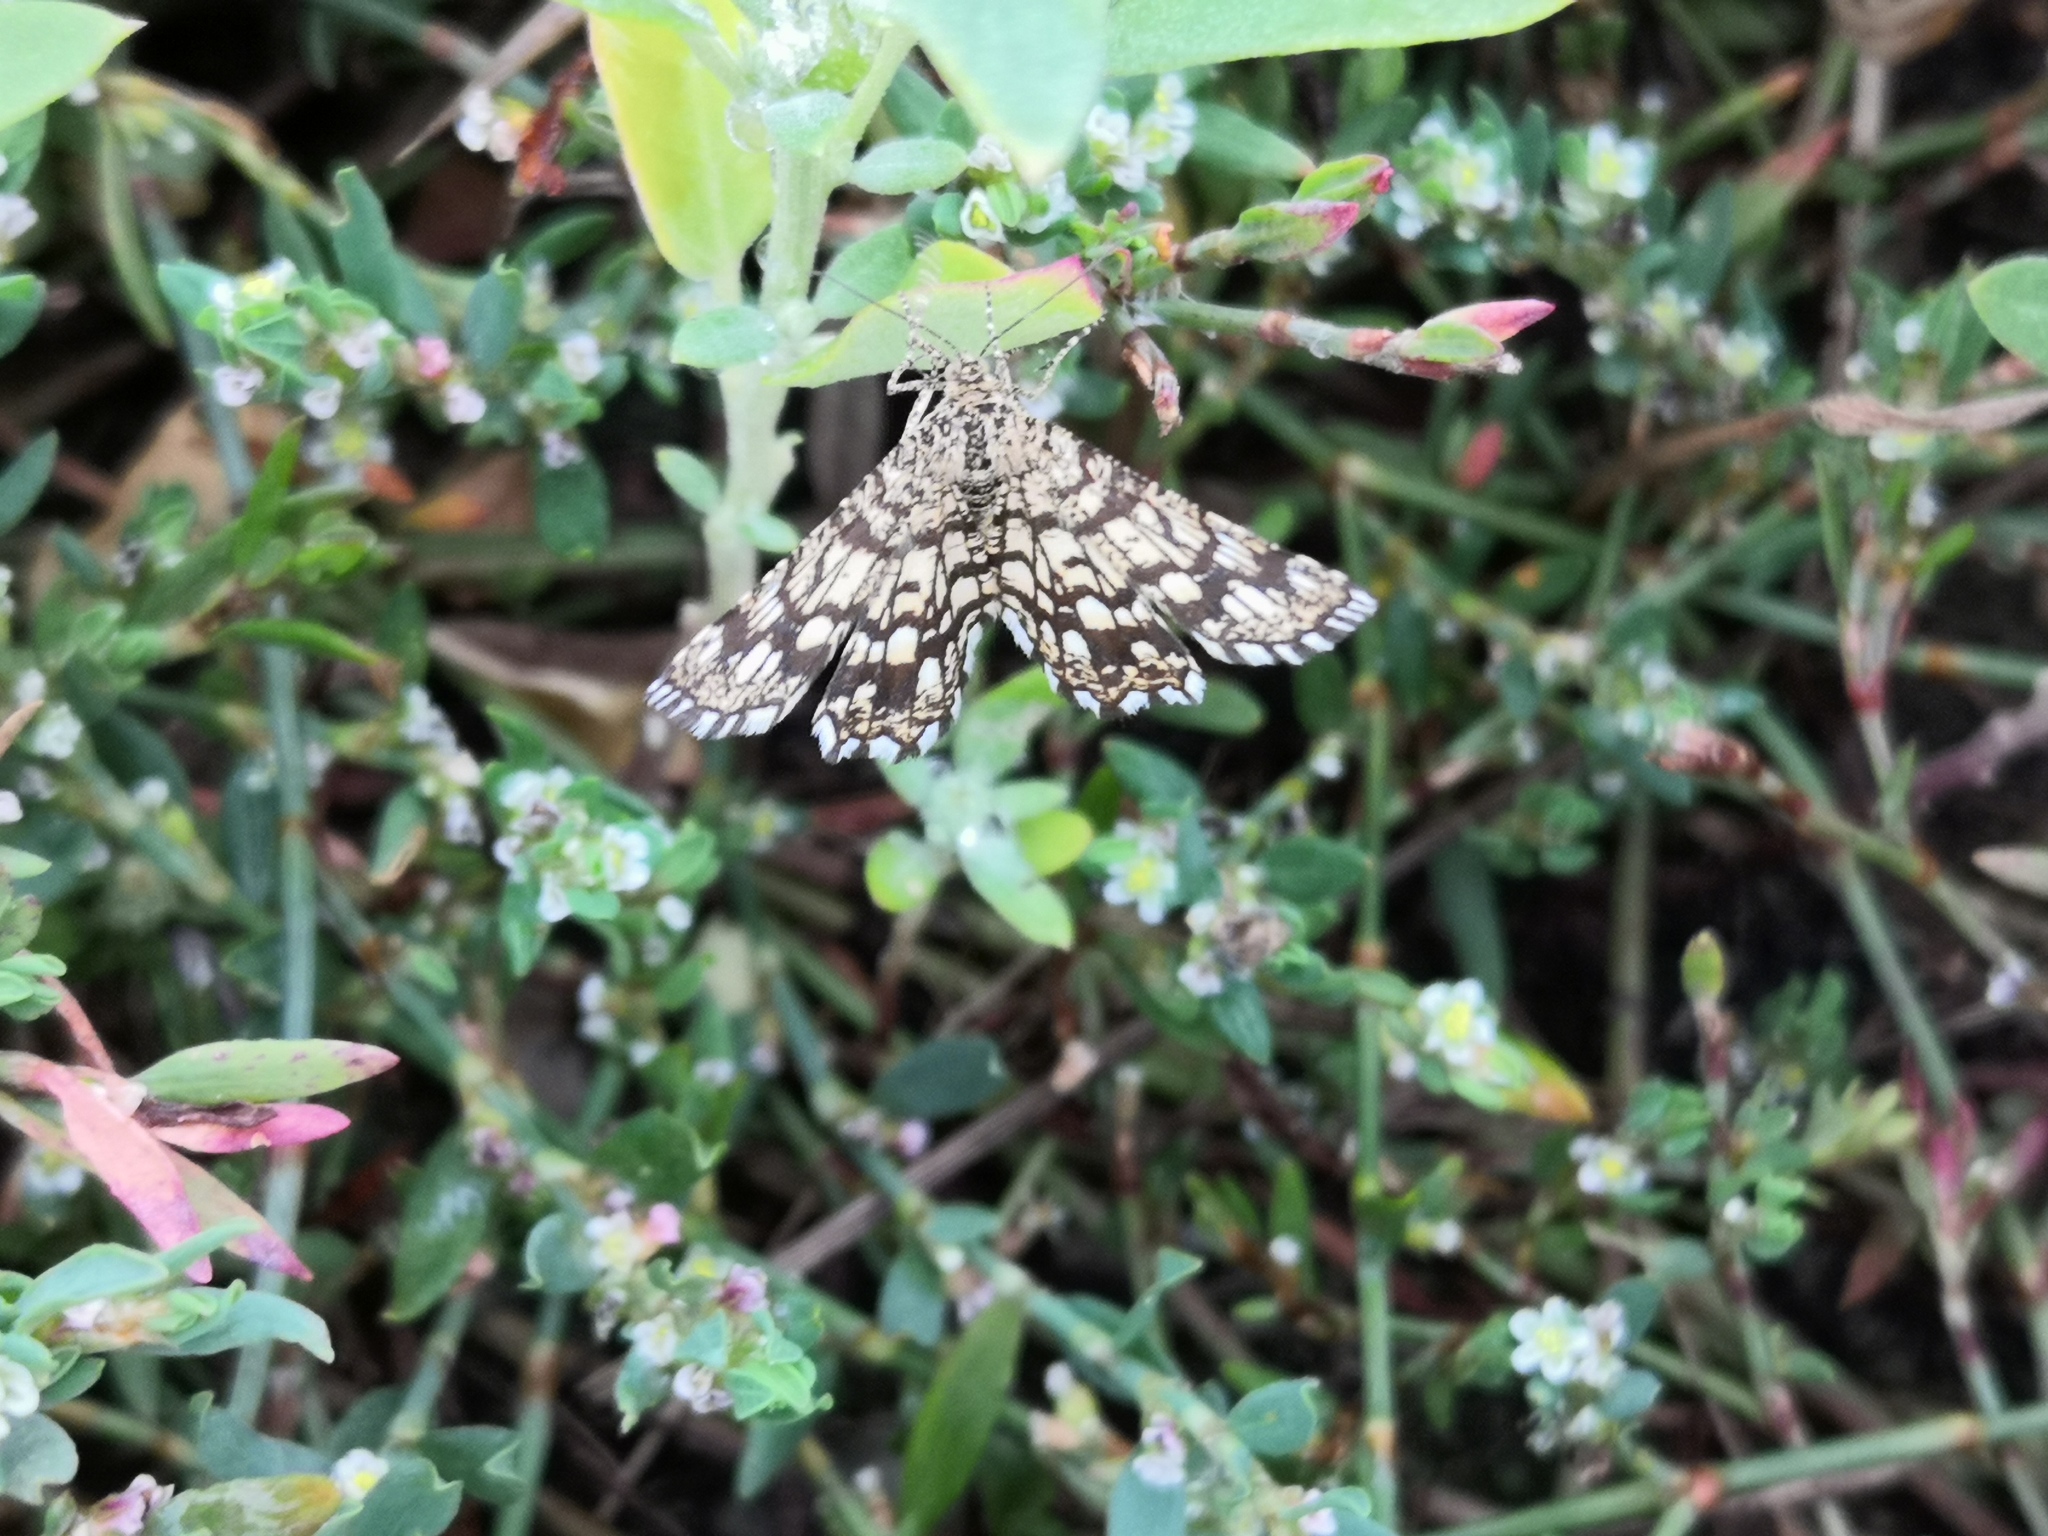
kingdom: Animalia
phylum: Arthropoda
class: Insecta
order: Lepidoptera
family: Geometridae
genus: Chiasmia
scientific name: Chiasmia clathrata
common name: Latticed heath
